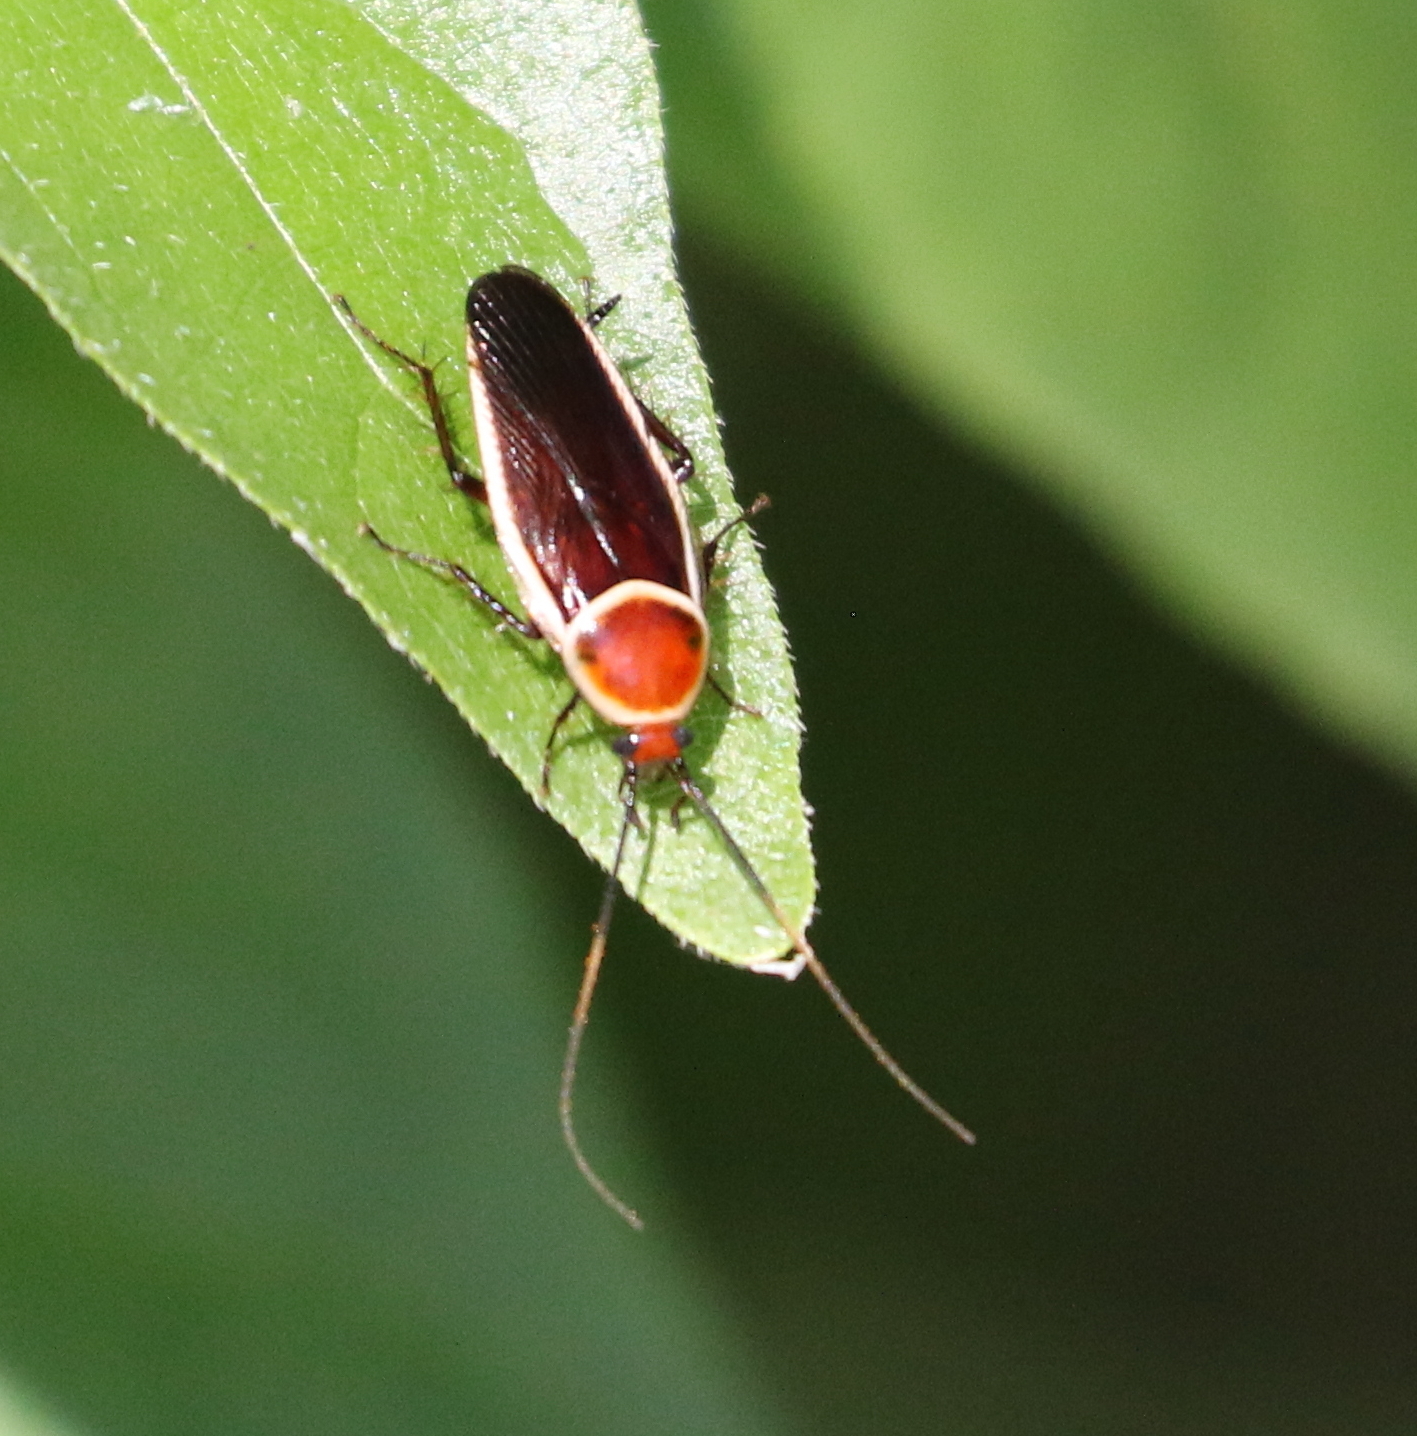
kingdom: Animalia
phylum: Arthropoda
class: Insecta
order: Blattodea
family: Ectobiidae
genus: Pseudomops
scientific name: Pseudomops septentrionalis
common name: Pale-bordered field cockroach
